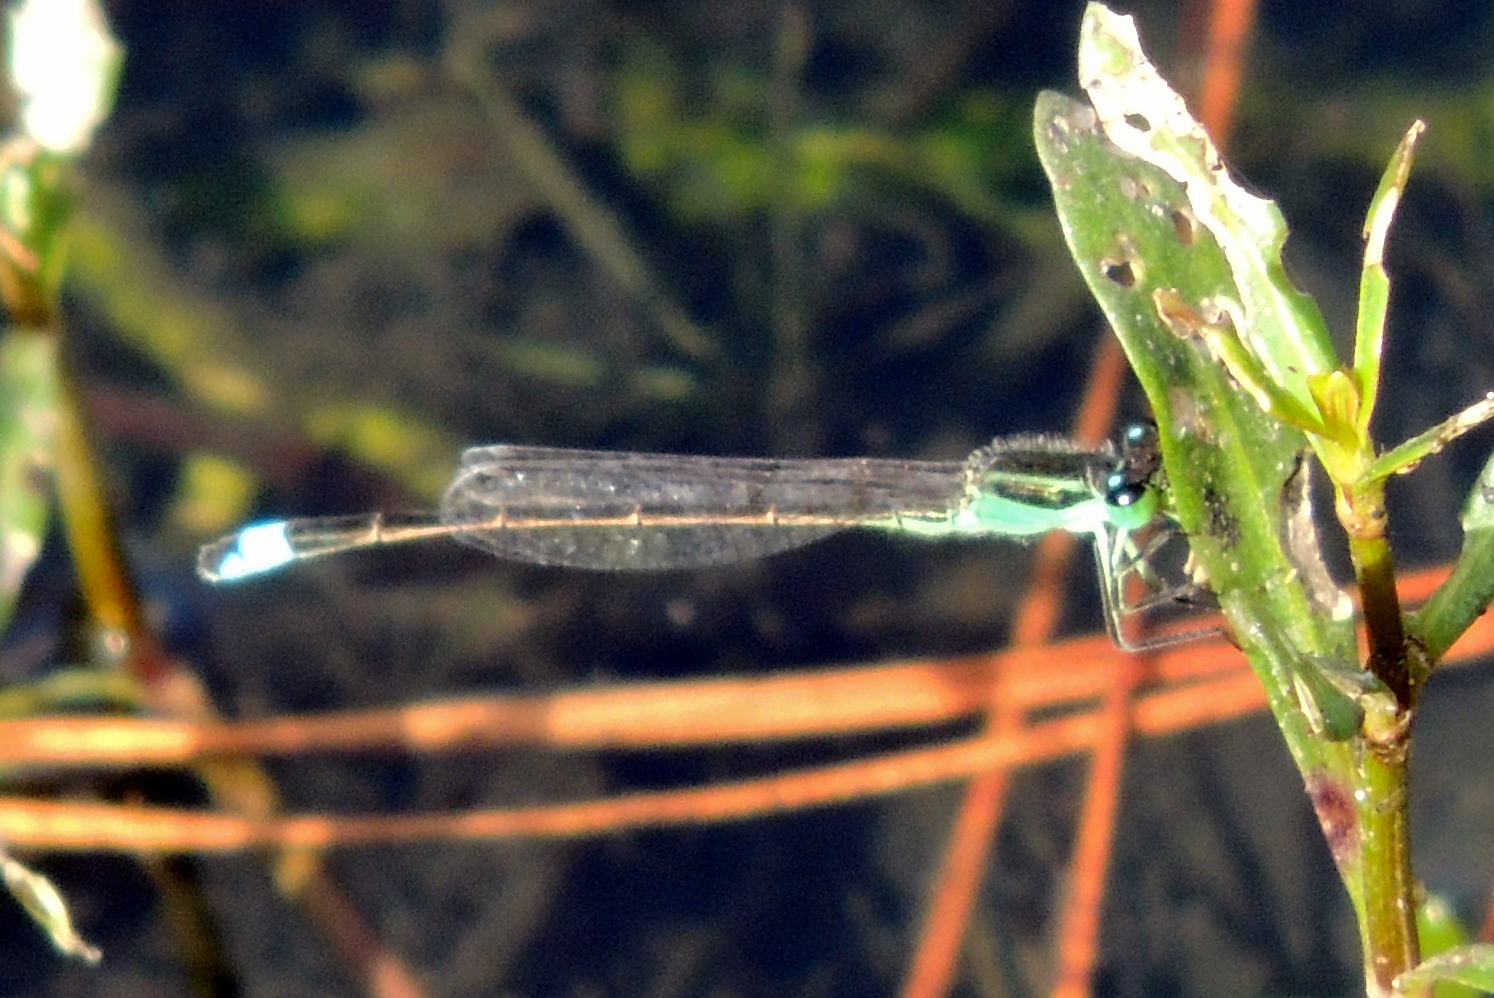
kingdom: Animalia
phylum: Arthropoda
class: Insecta
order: Odonata
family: Coenagrionidae
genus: Ischnura
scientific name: Ischnura ramburii
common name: Rambur's forktail
